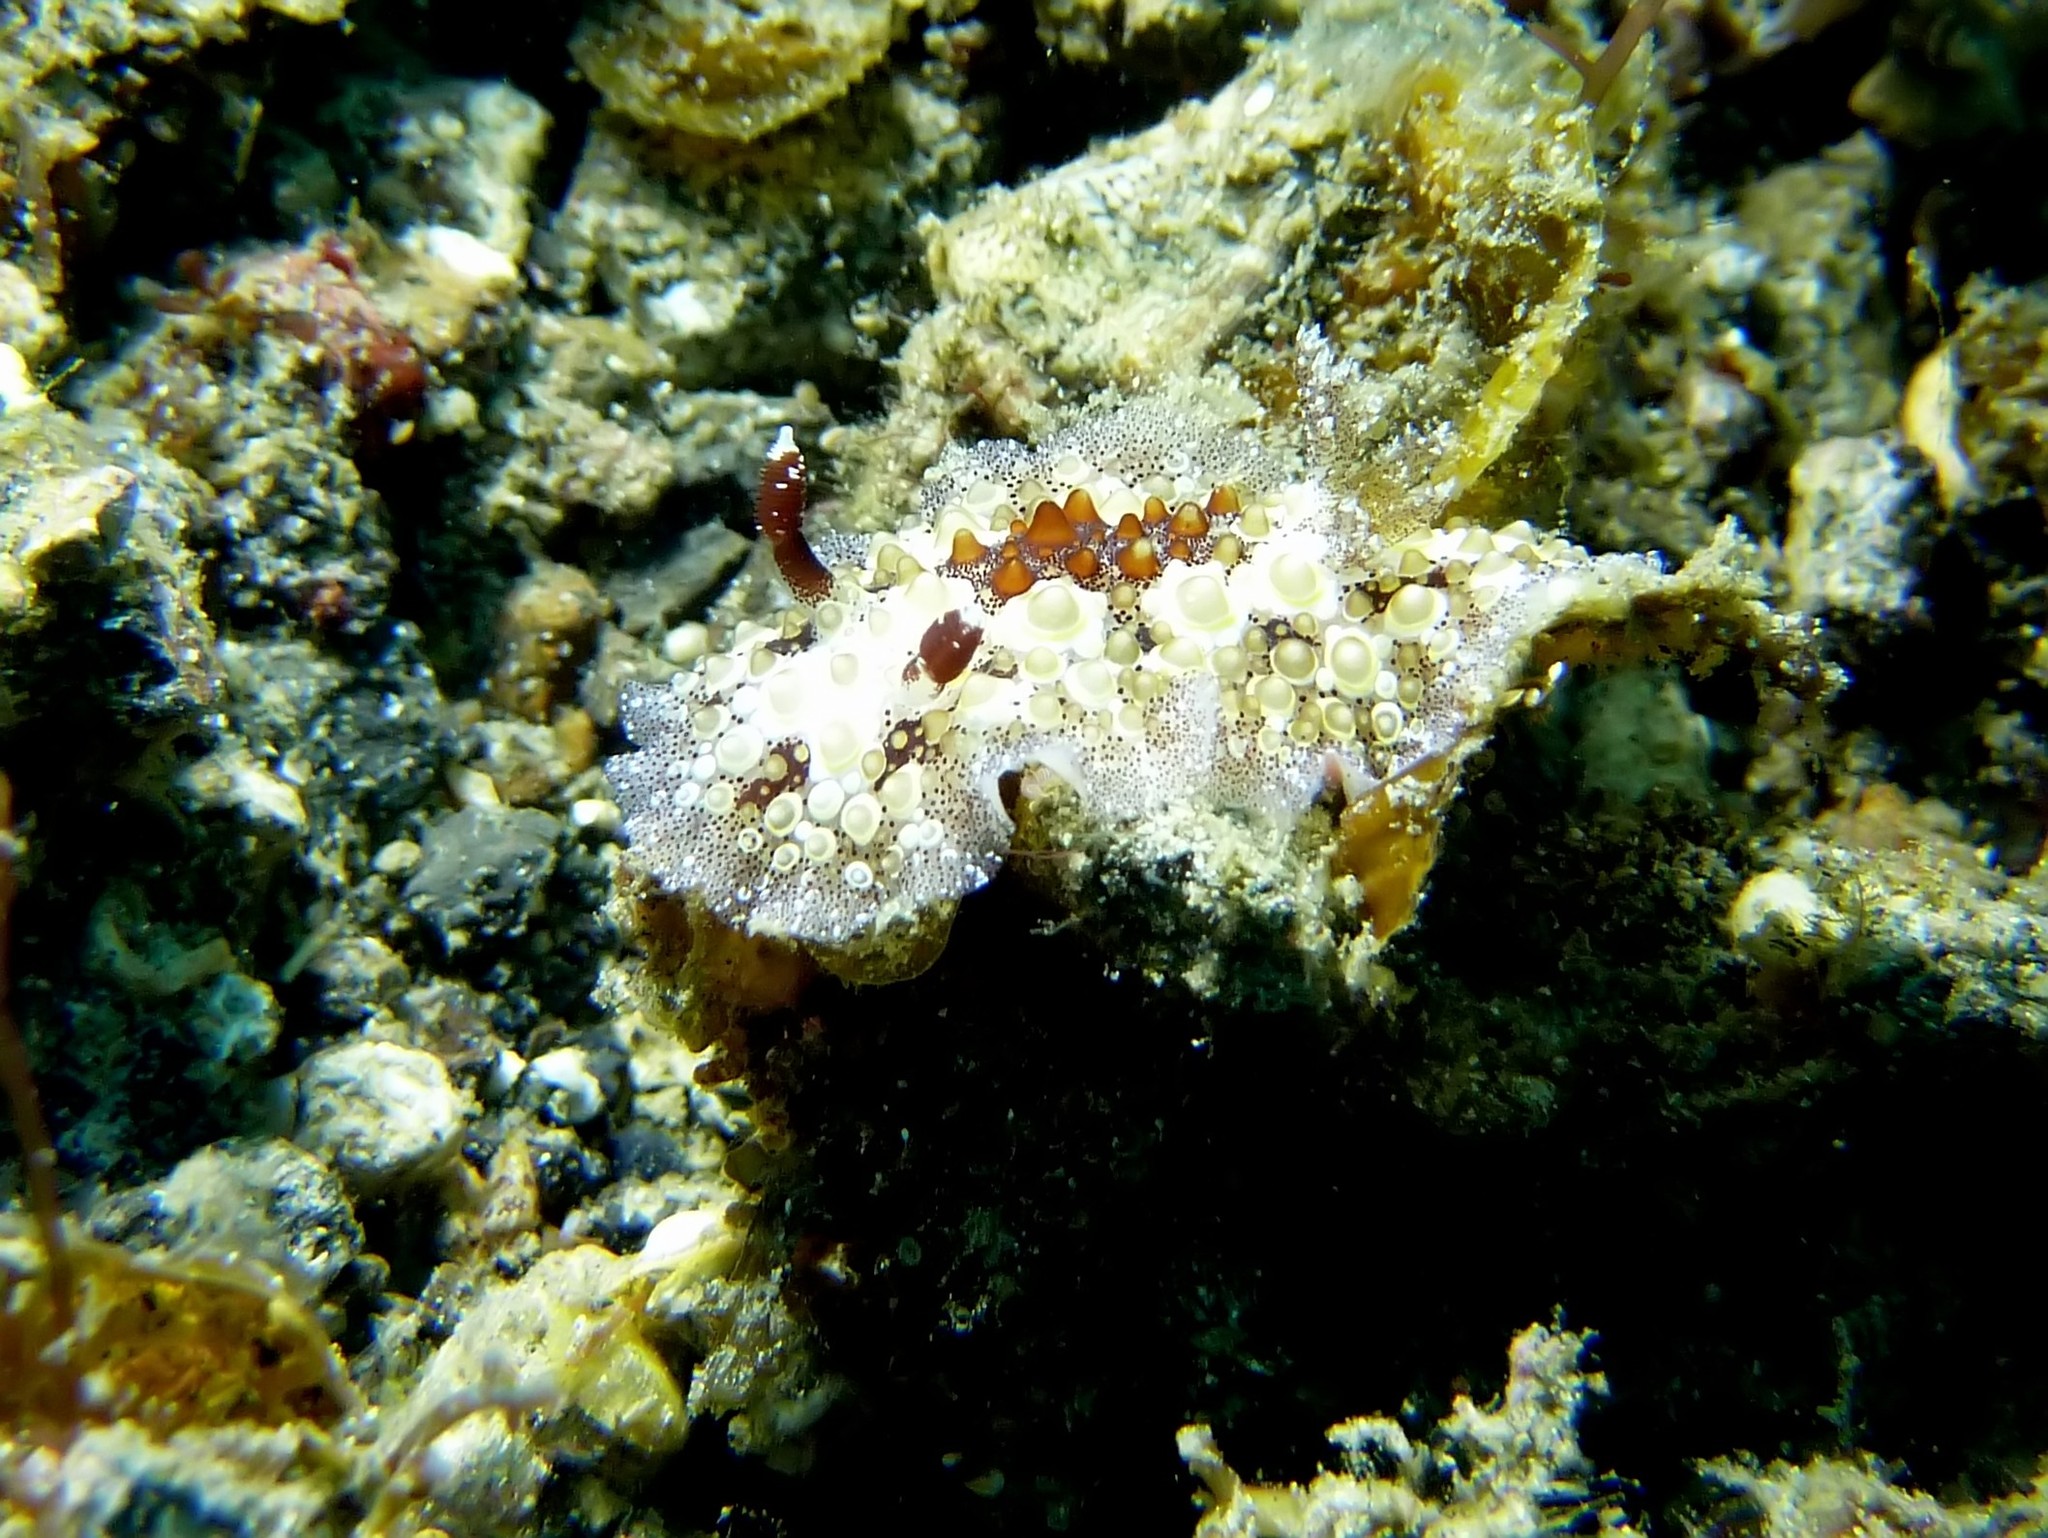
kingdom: Animalia
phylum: Mollusca
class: Gastropoda
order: Nudibranchia
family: Discodorididae
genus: Carminodoris
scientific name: Carminodoris estrelyado
